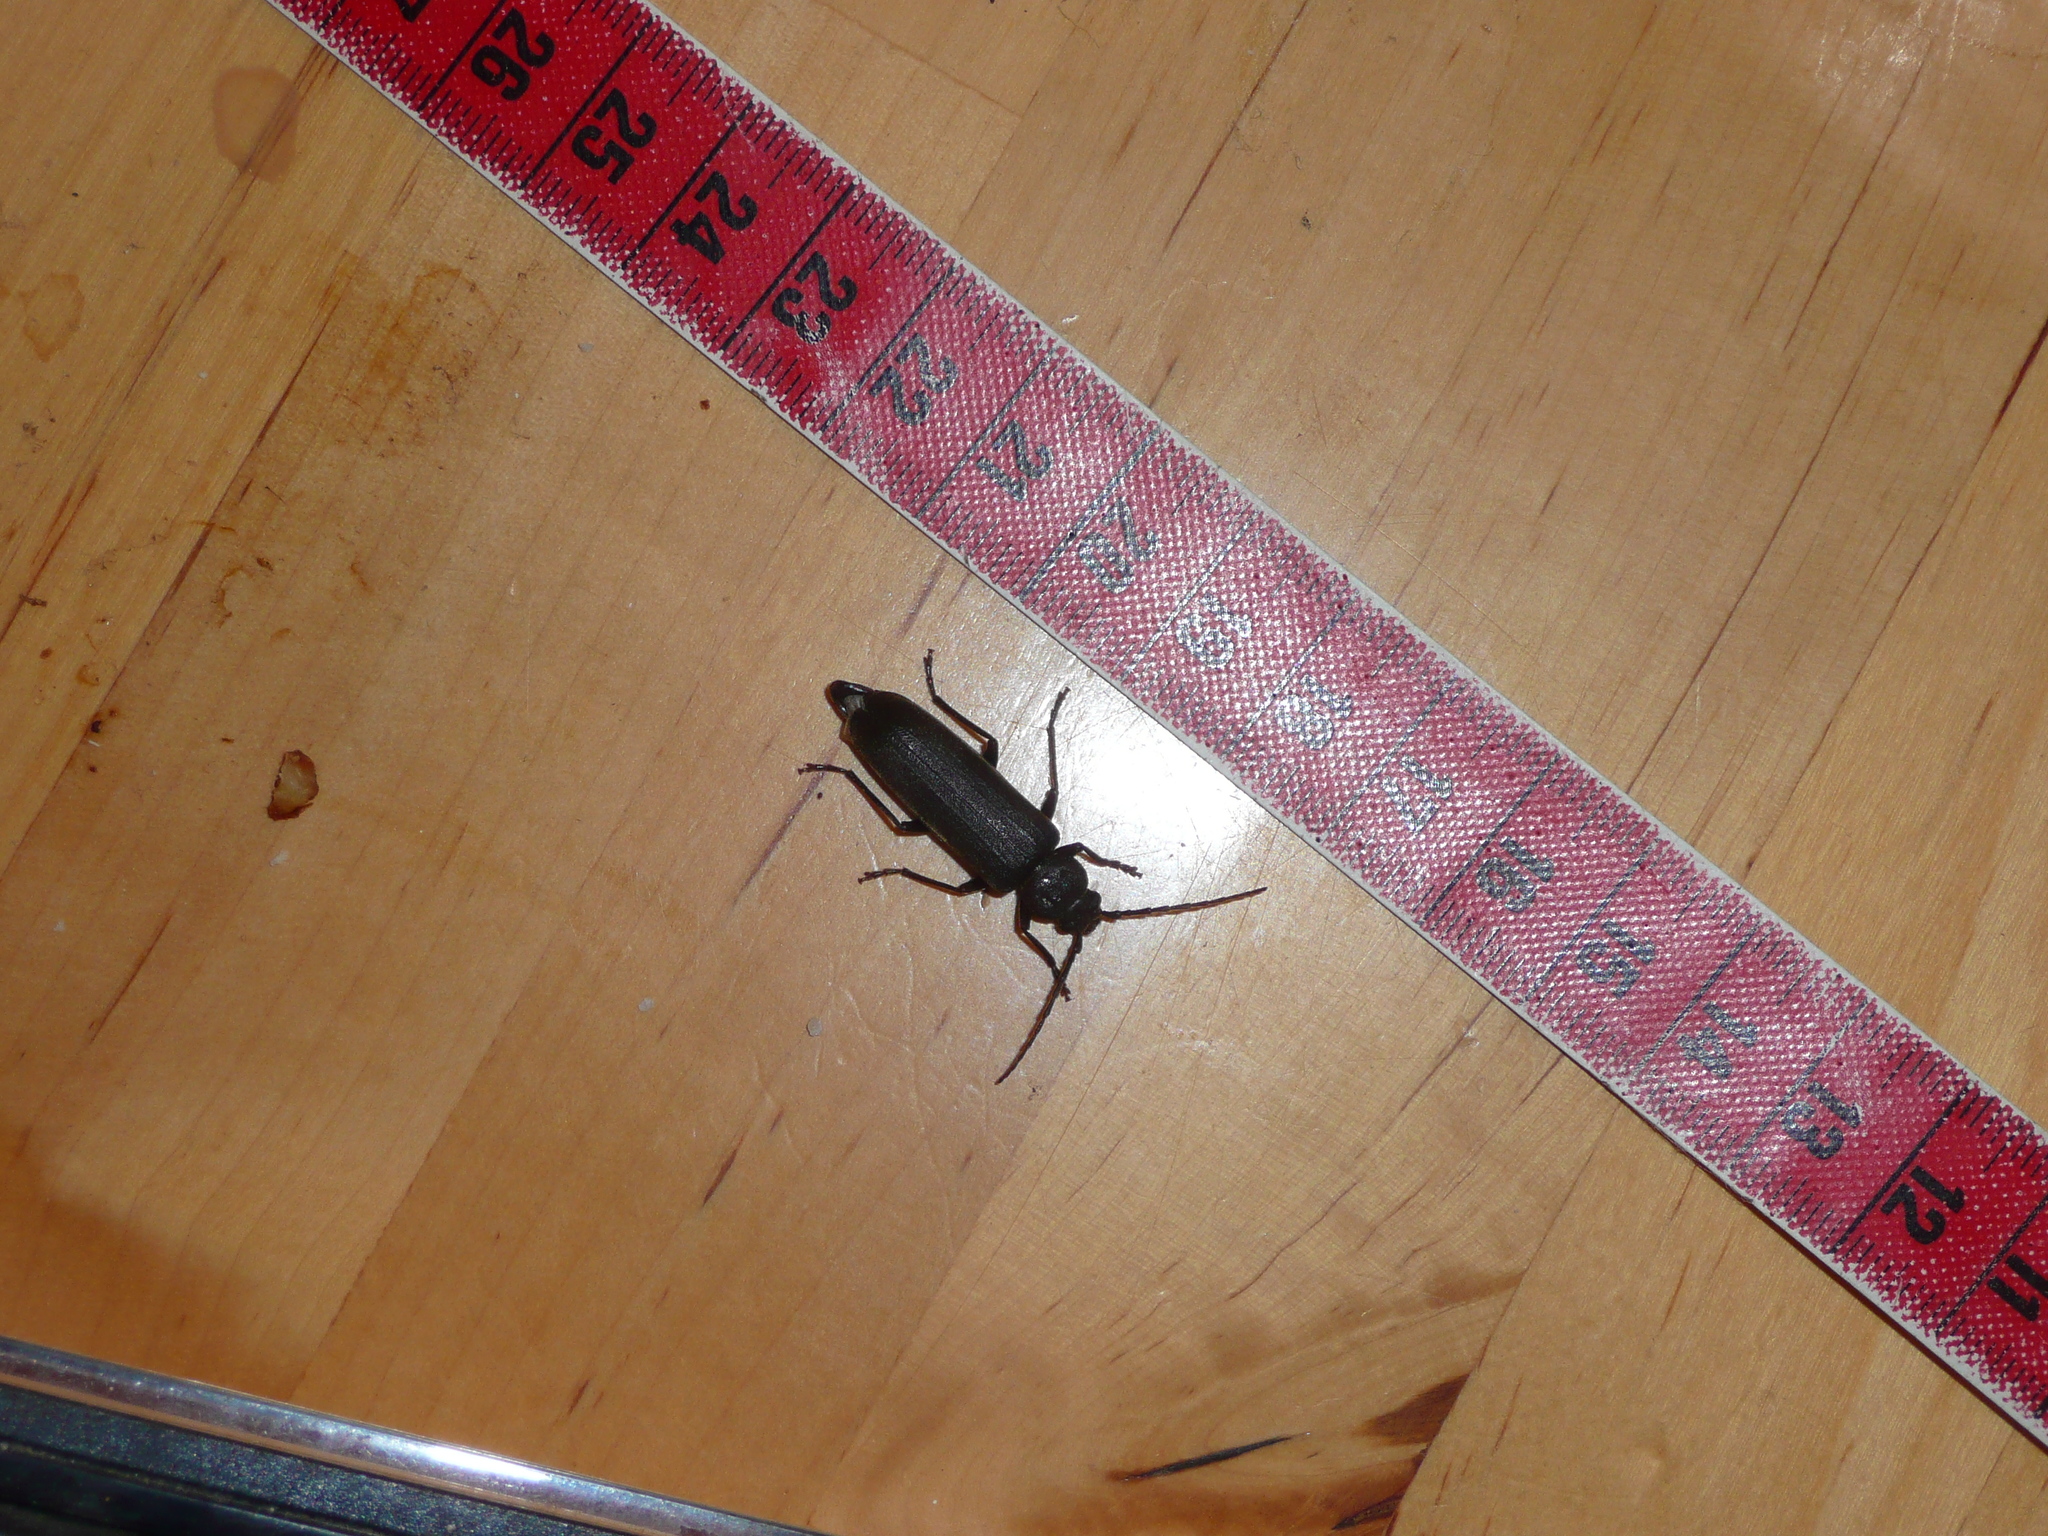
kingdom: Animalia
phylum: Arthropoda
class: Insecta
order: Coleoptera
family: Cerambycidae
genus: Arhopalus
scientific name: Arhopalus rusticus
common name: Rust pine borer
